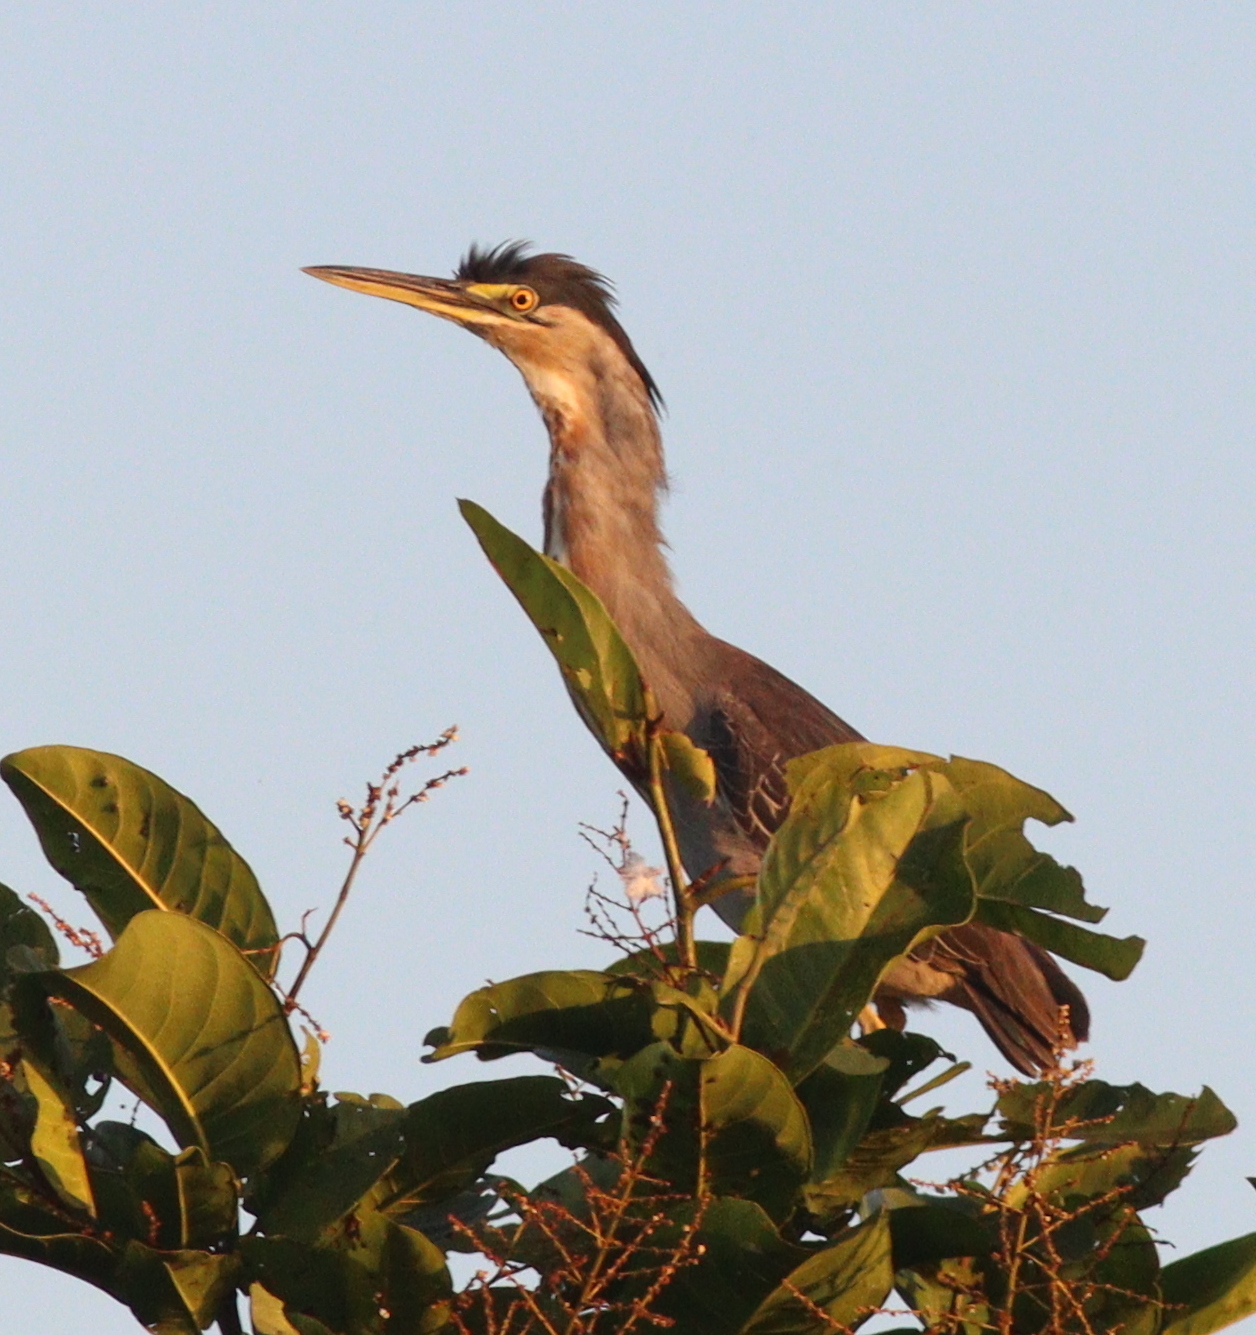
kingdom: Animalia
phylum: Chordata
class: Aves
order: Pelecaniformes
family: Ardeidae
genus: Butorides
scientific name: Butorides striata
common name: Striated heron
